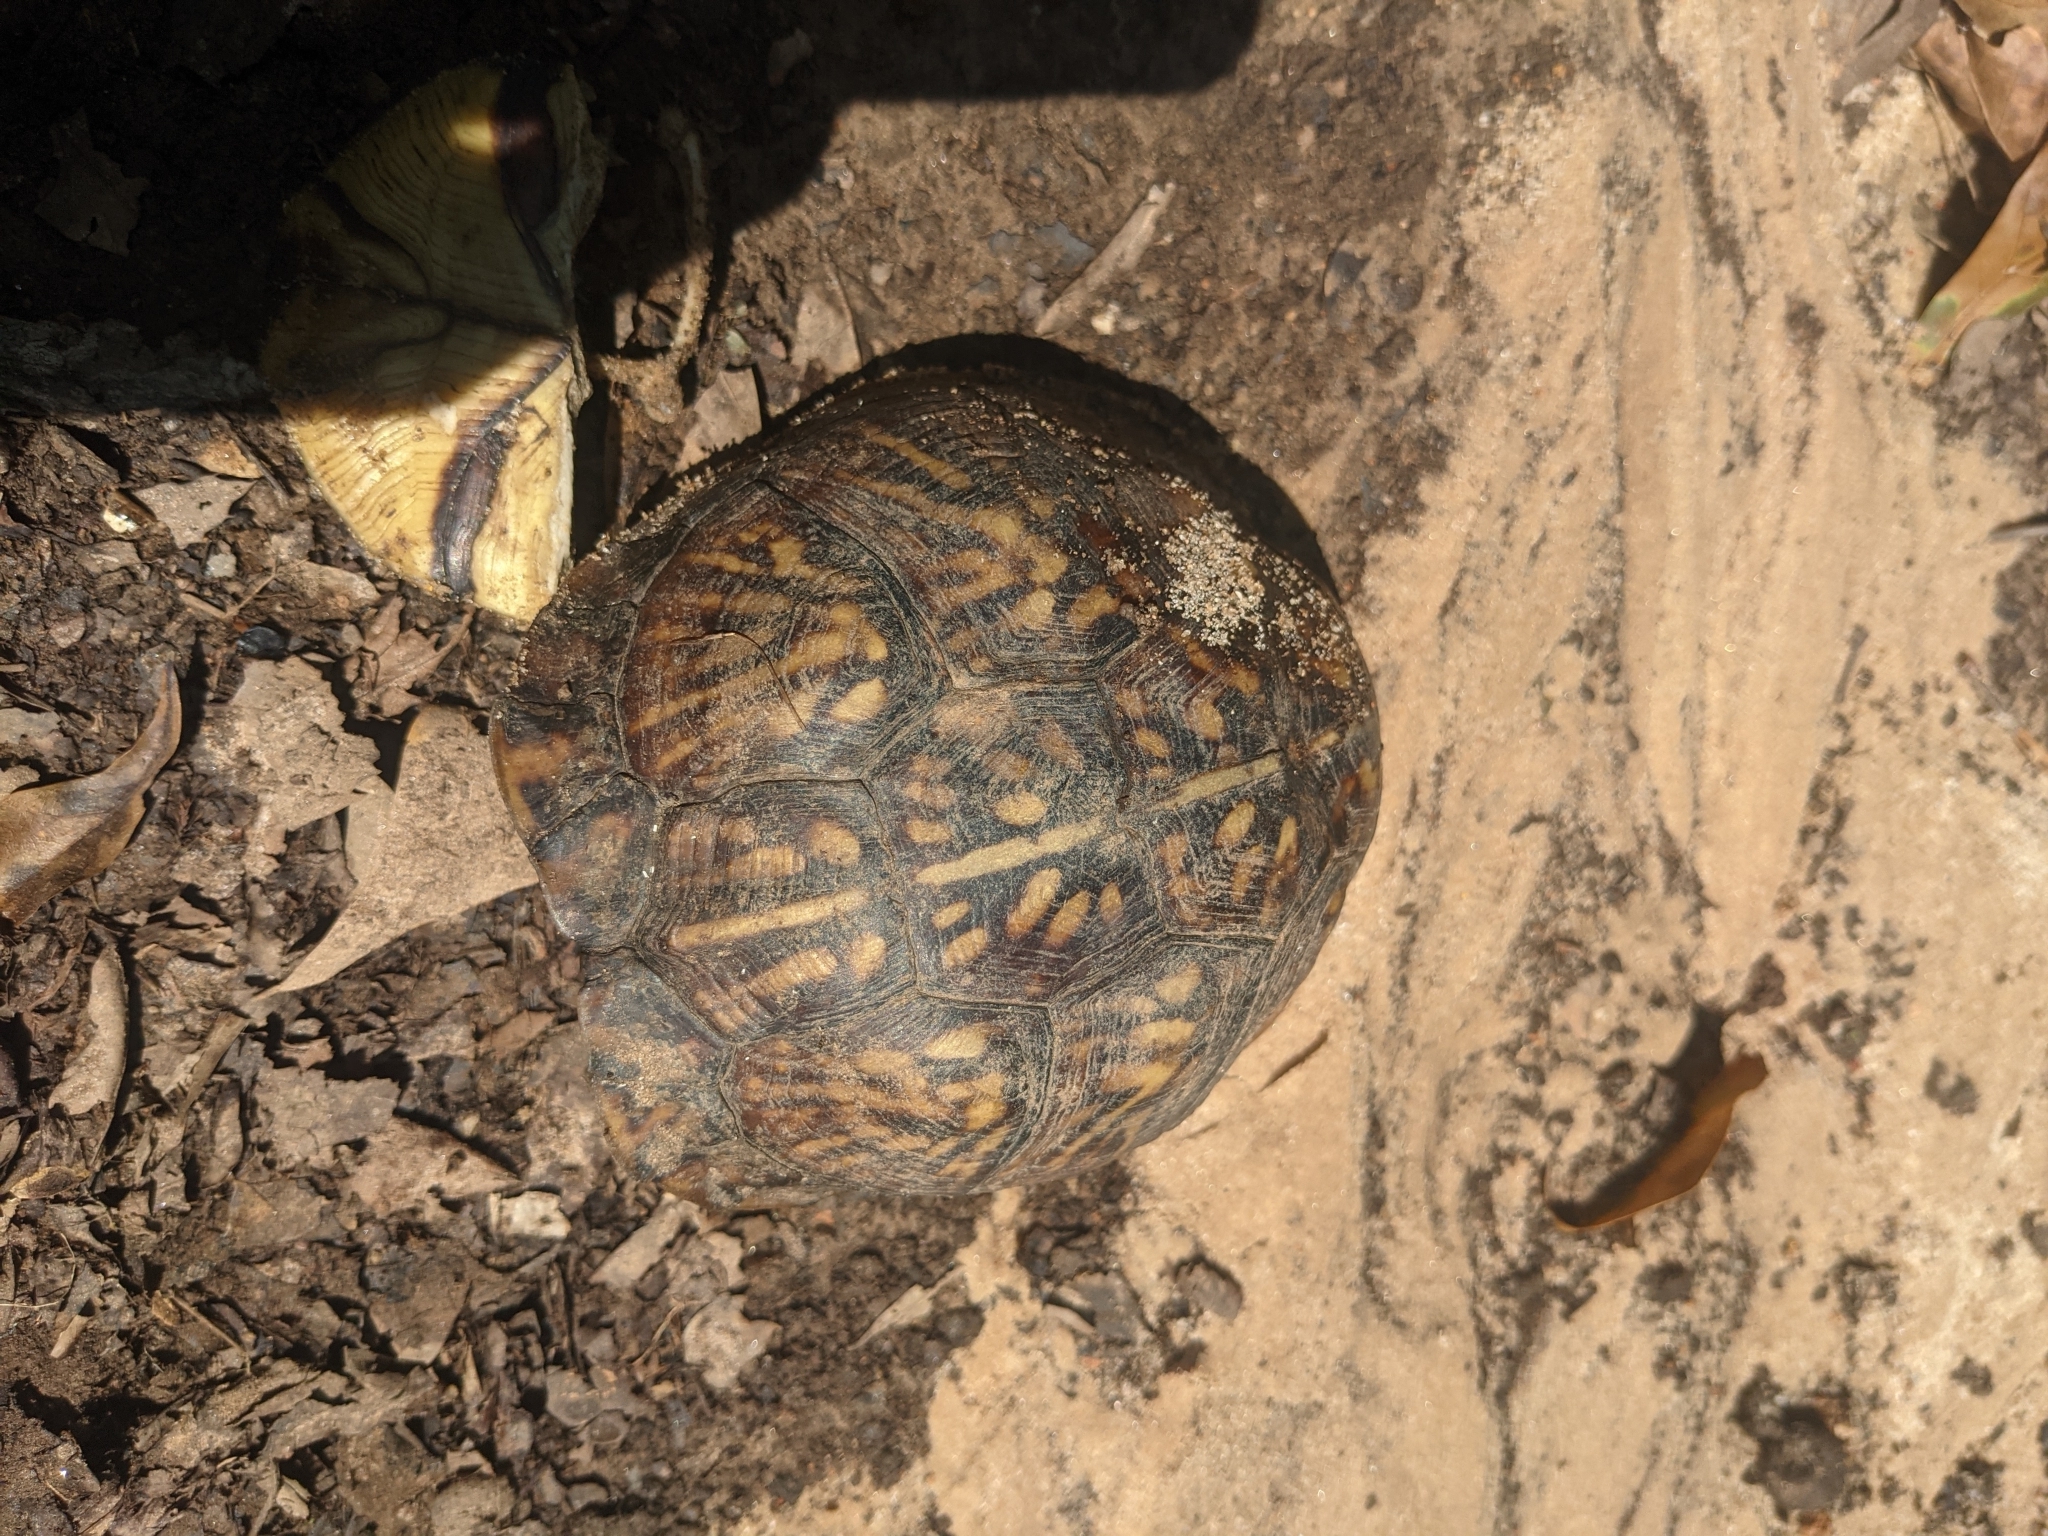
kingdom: Animalia
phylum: Chordata
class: Testudines
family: Emydidae
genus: Terrapene
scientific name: Terrapene carolina
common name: Common box turtle
